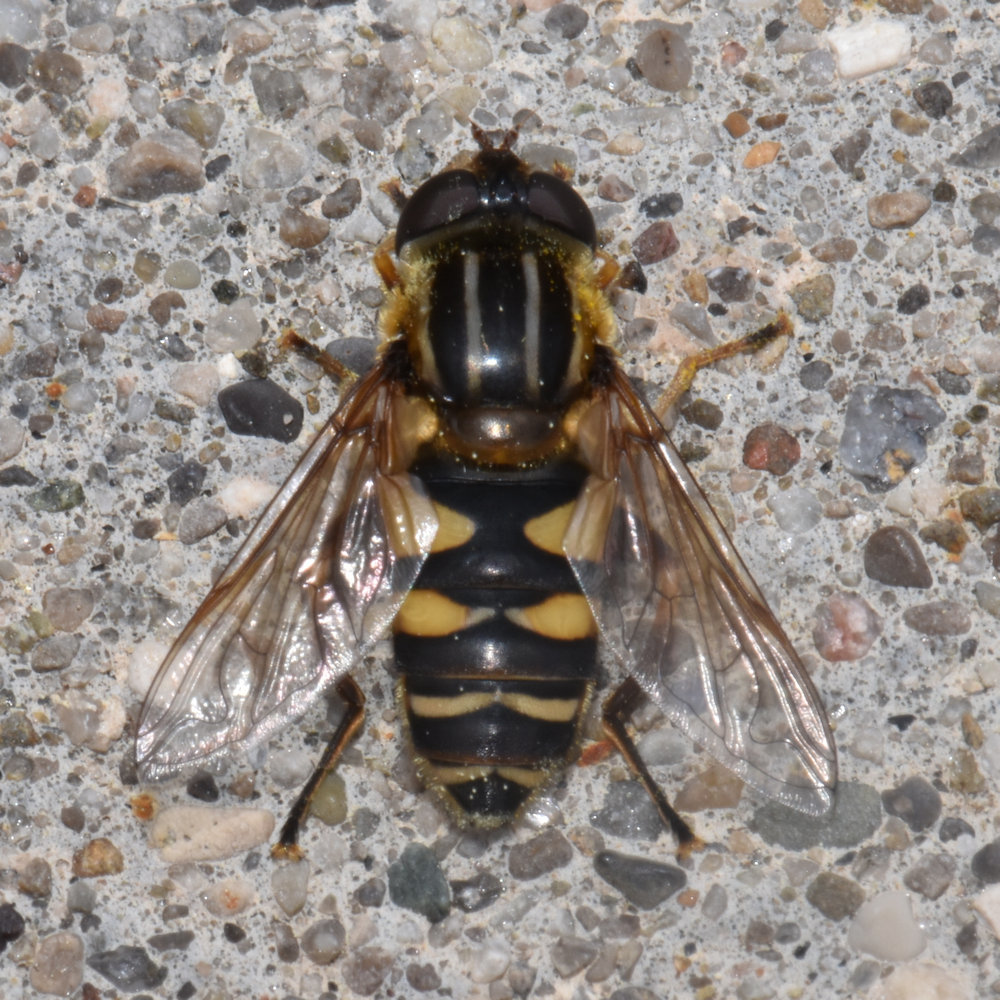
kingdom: Animalia
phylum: Arthropoda
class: Insecta
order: Diptera
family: Syrphidae
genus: Helophilus
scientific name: Helophilus fasciatus
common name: Narrow-headed marsh fly
